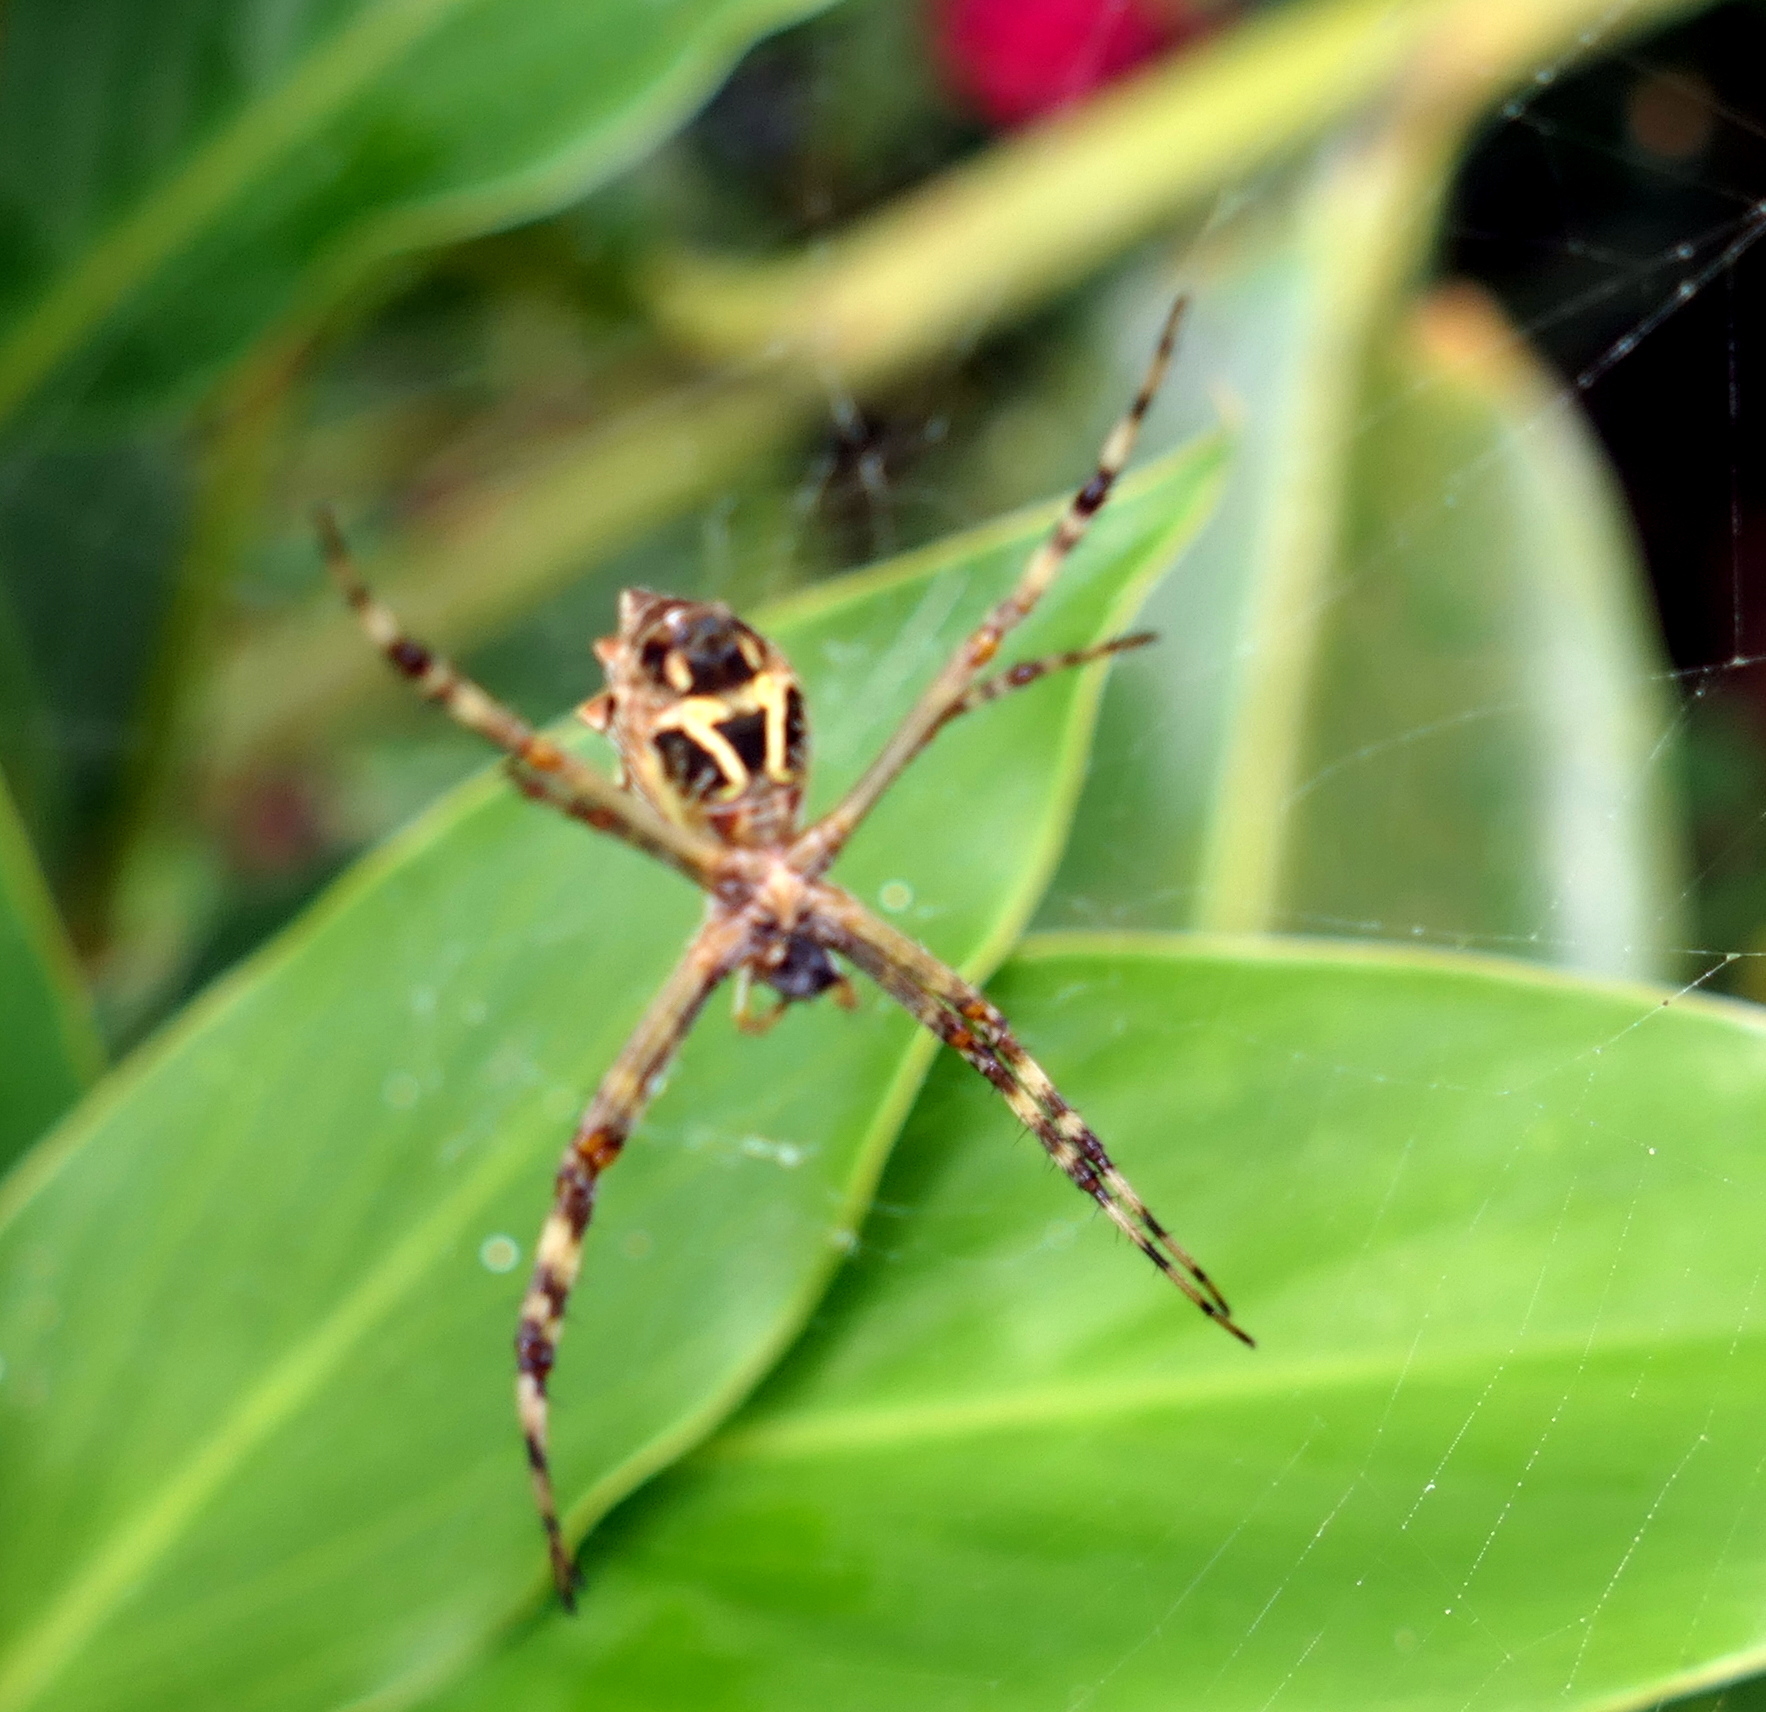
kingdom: Animalia
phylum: Arthropoda
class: Arachnida
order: Araneae
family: Araneidae
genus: Argiope
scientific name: Argiope argentata
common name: Orb weavers
